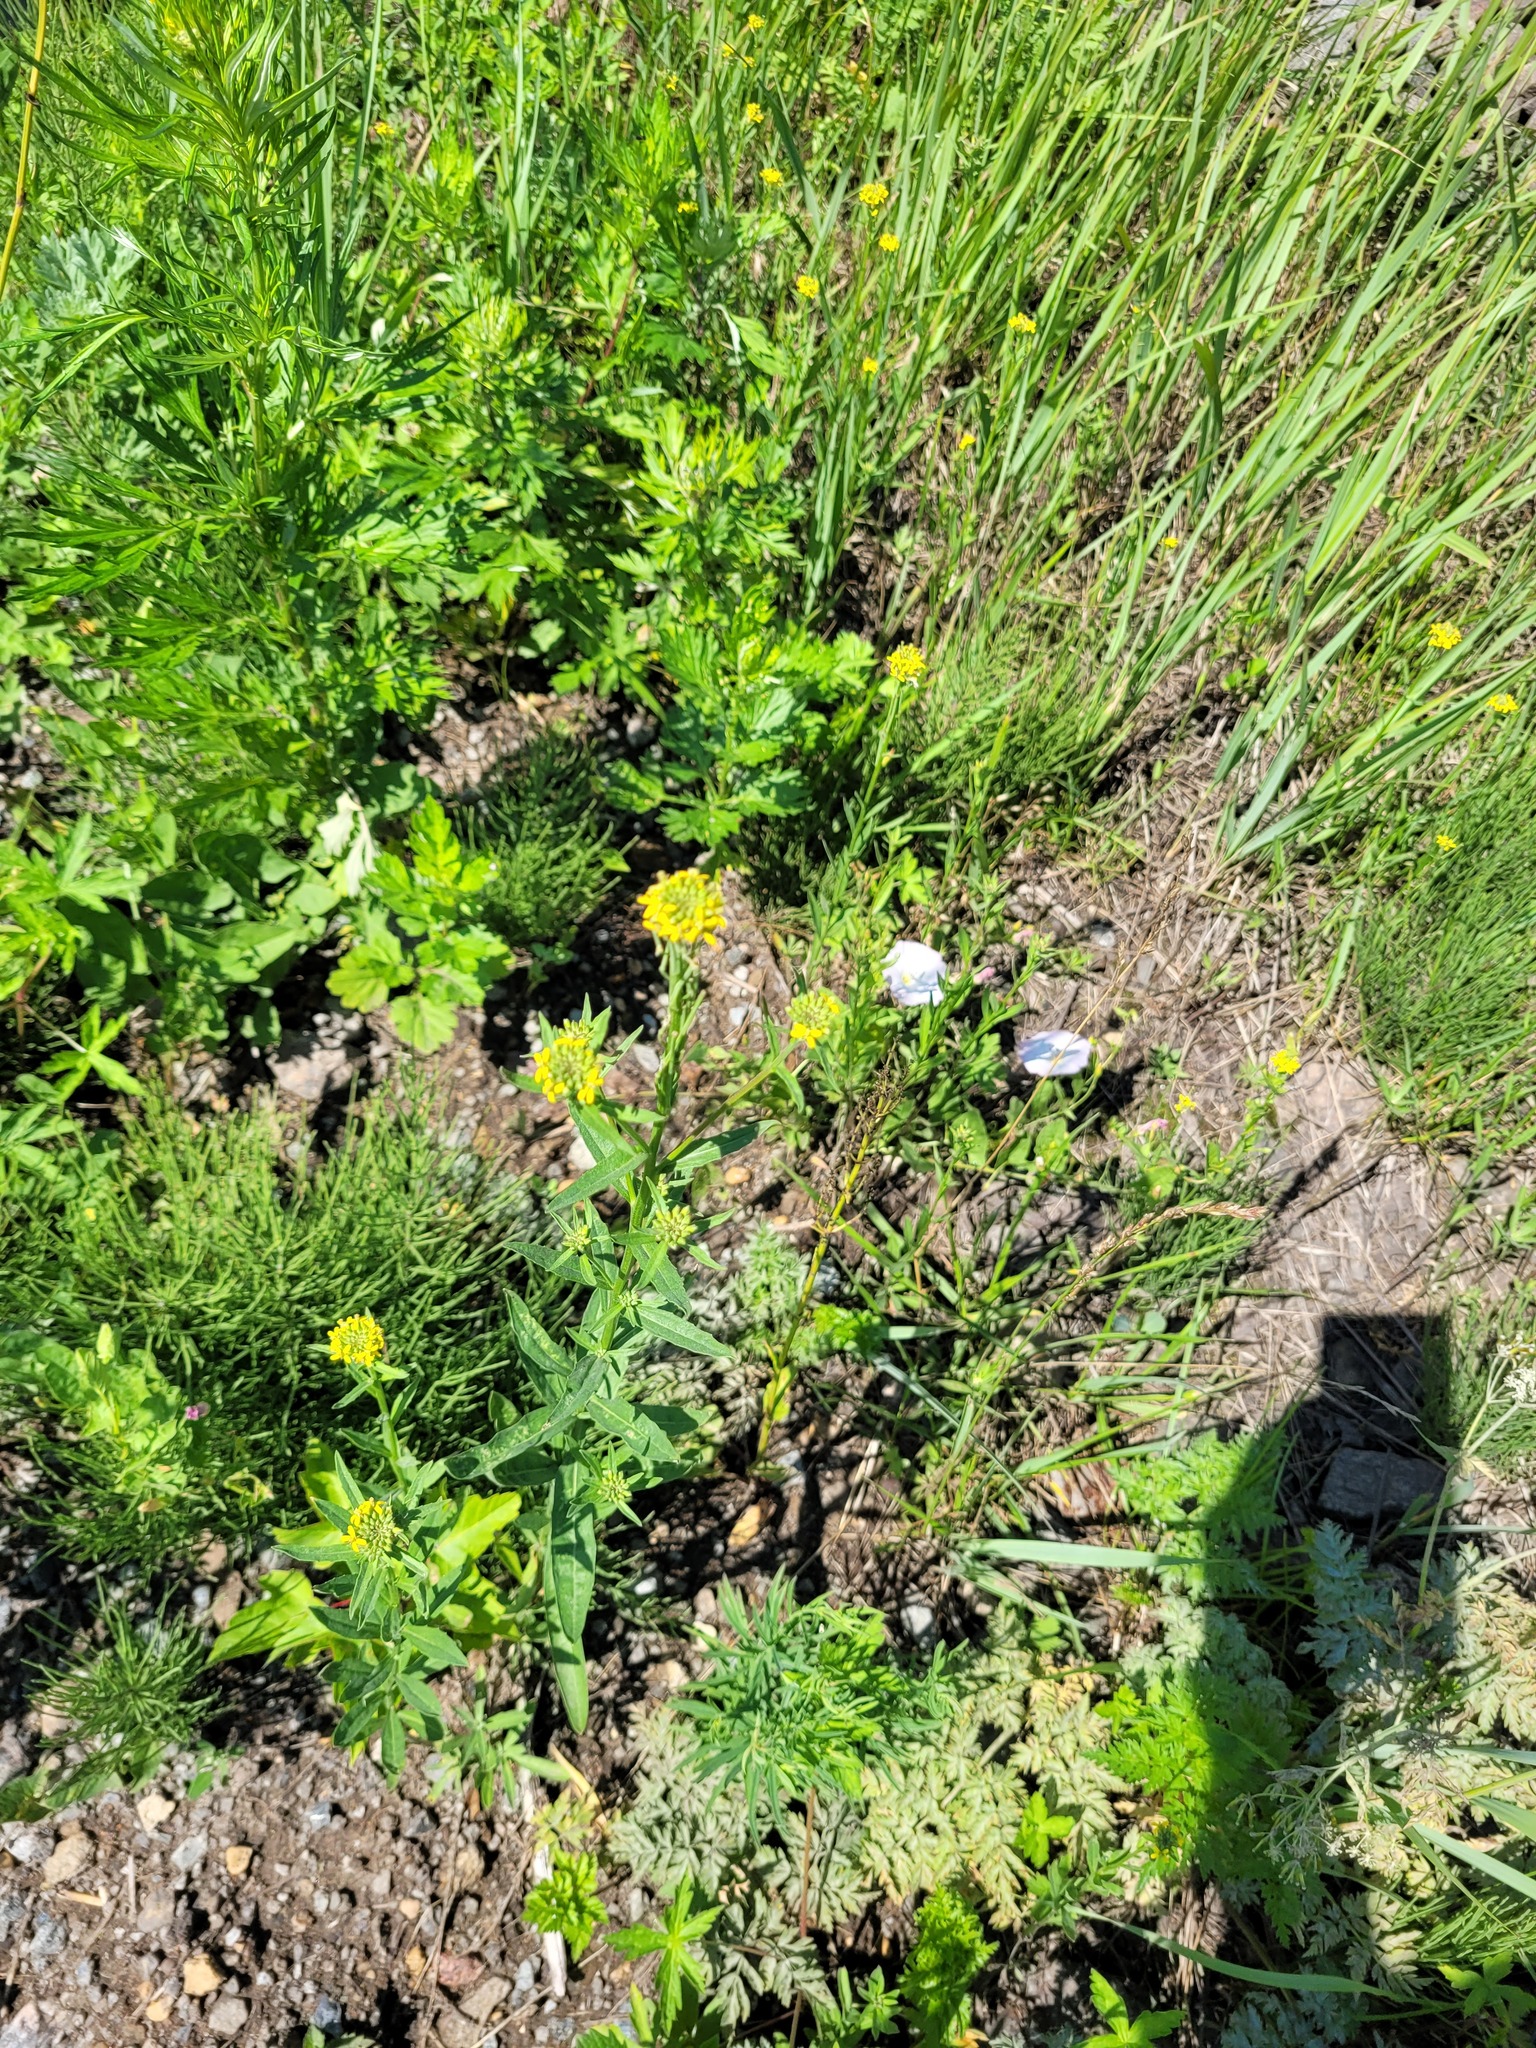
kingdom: Plantae
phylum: Tracheophyta
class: Magnoliopsida
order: Brassicales
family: Brassicaceae
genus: Erysimum
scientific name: Erysimum hieraciifolium
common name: European wallflower
